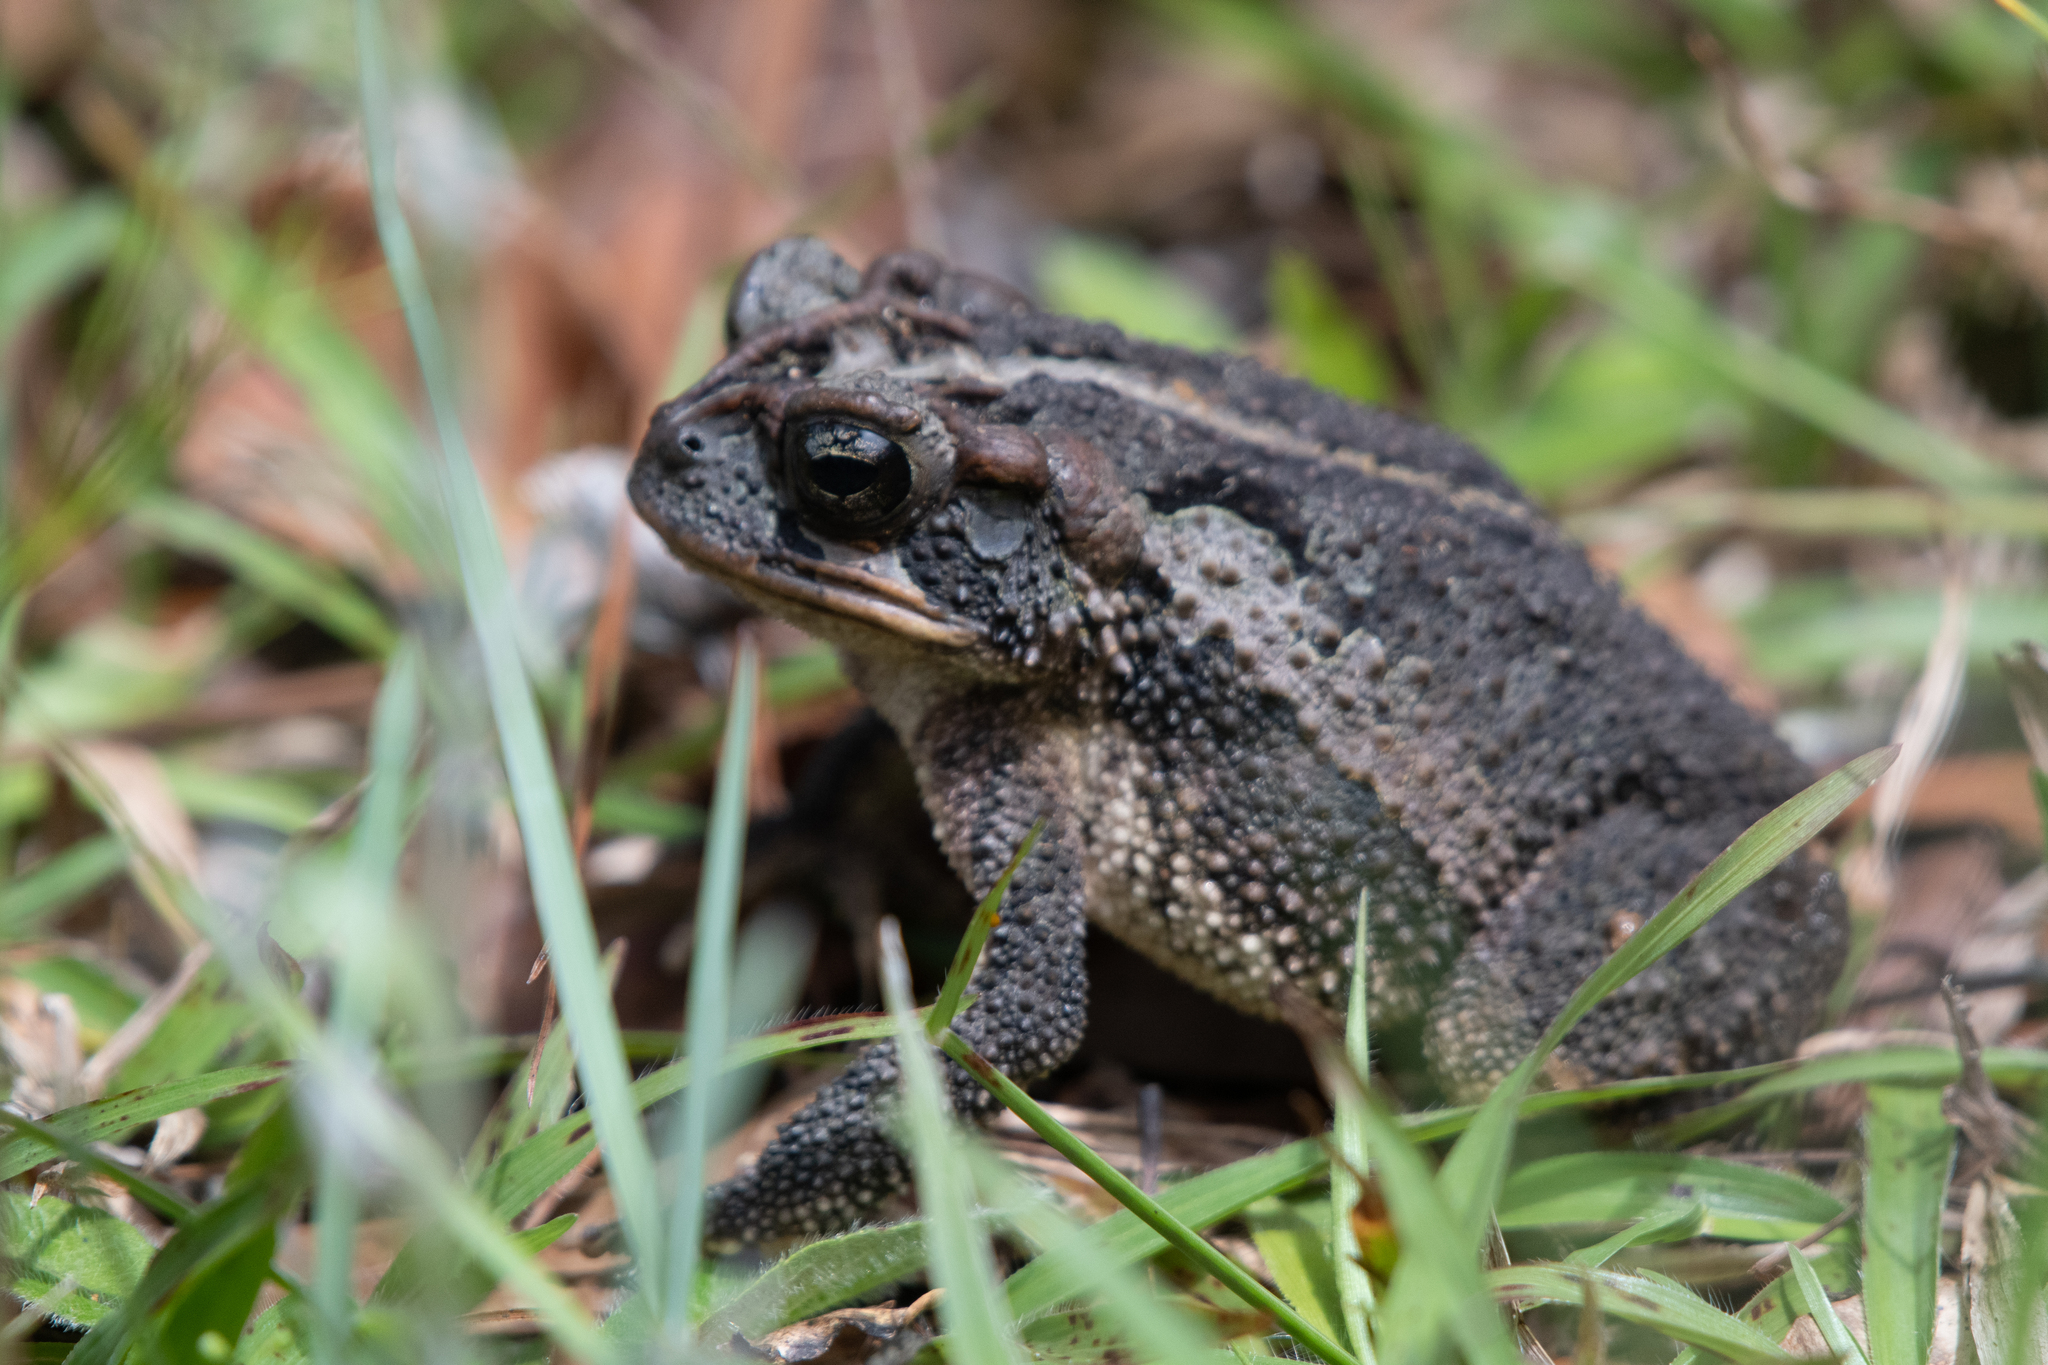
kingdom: Animalia
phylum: Chordata
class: Amphibia
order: Anura
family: Bufonidae
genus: Incilius
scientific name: Incilius porteri
